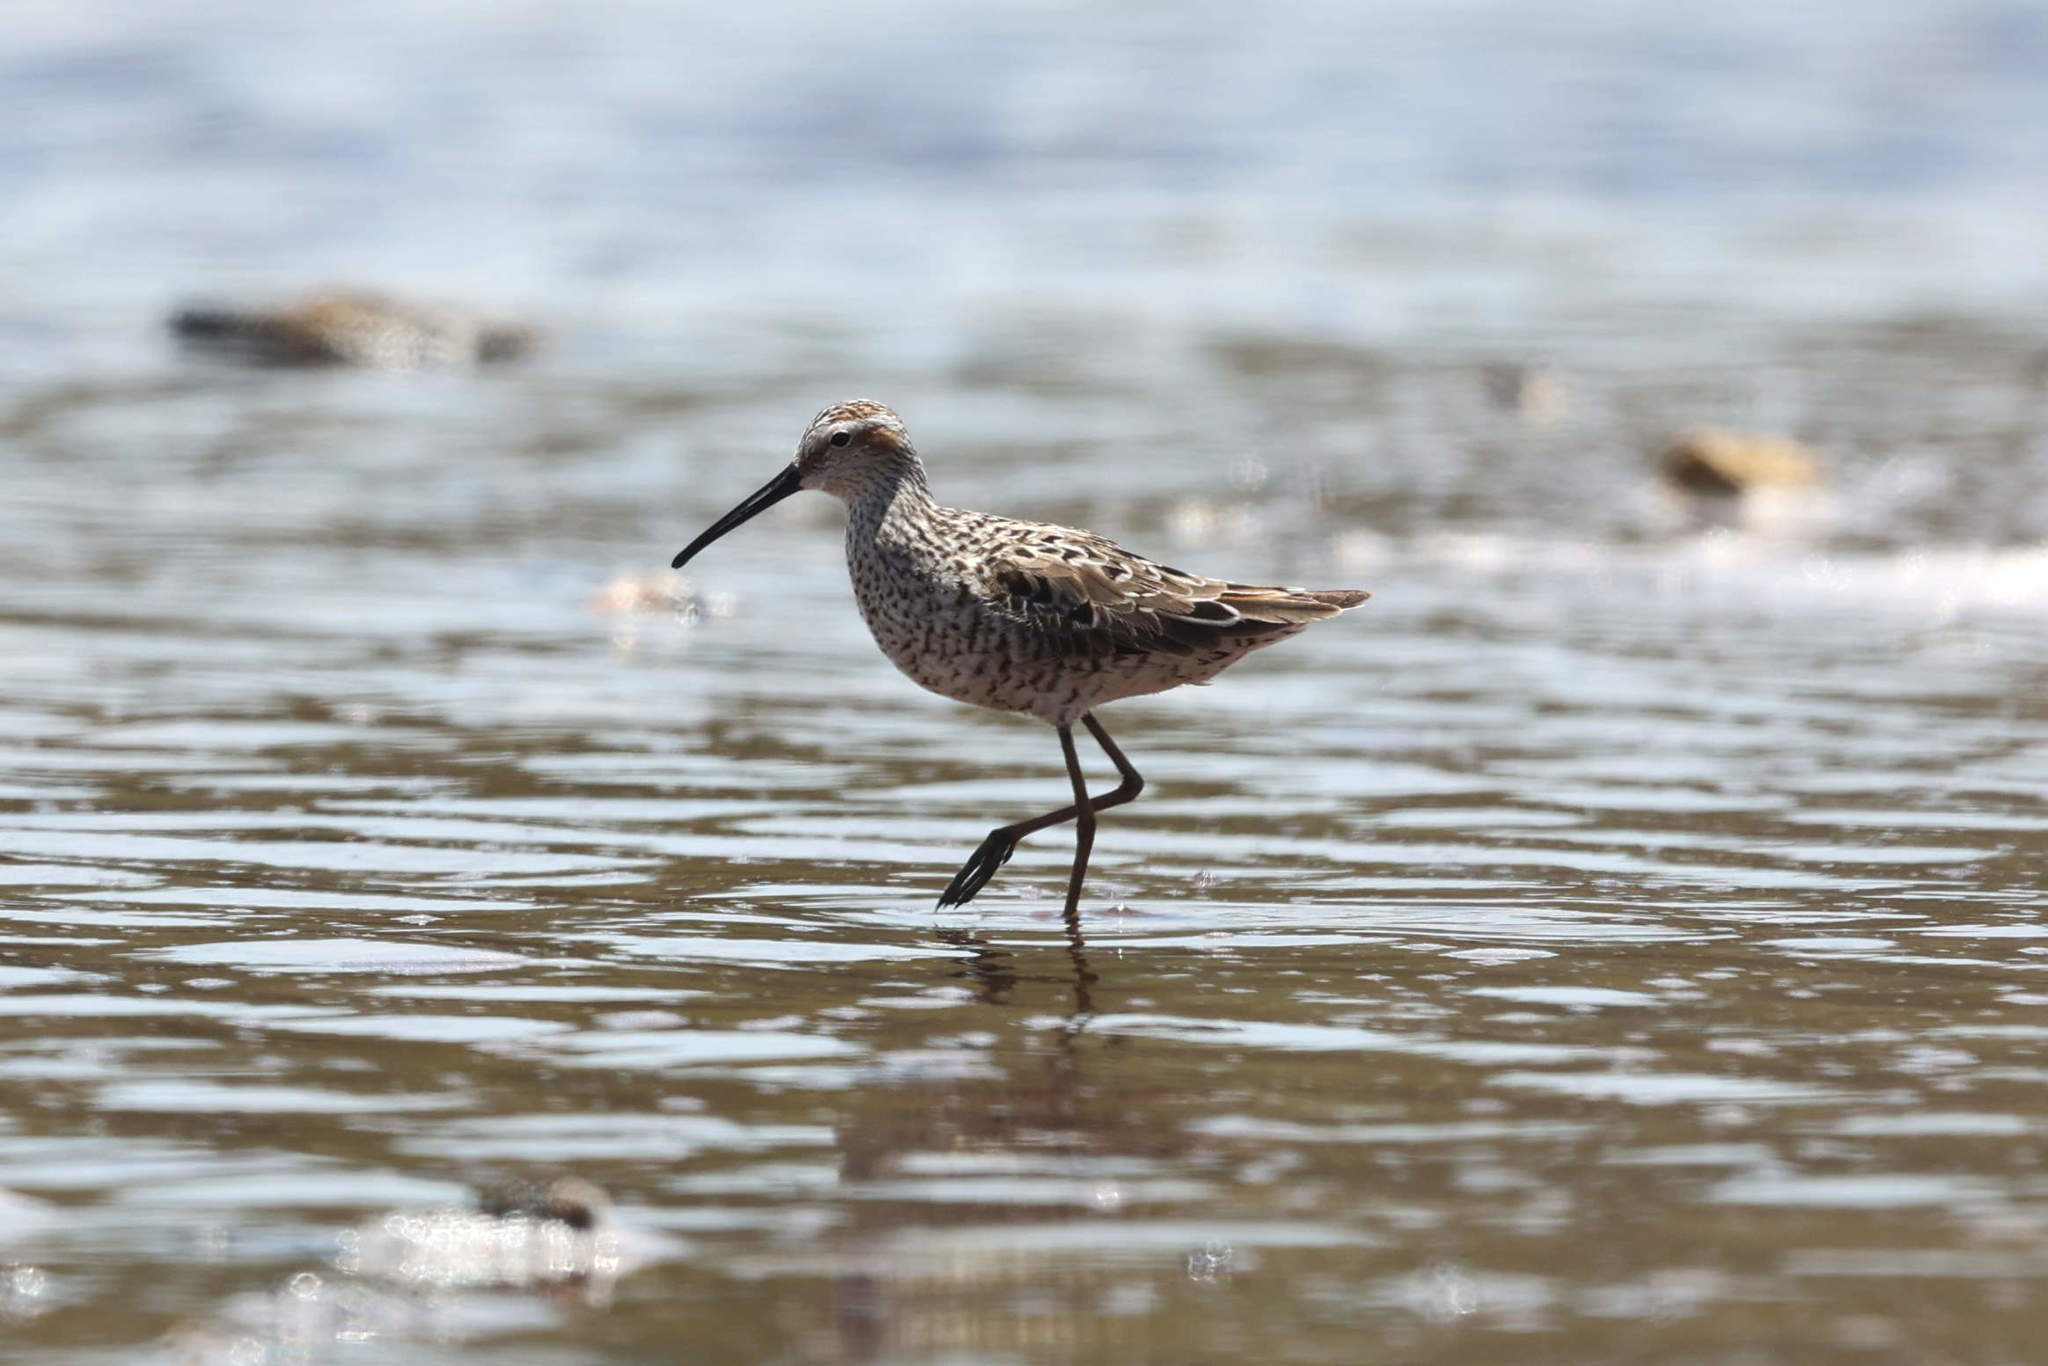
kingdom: Animalia
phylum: Chordata
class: Aves
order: Charadriiformes
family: Scolopacidae
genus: Calidris
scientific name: Calidris himantopus
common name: Stilt sandpiper
